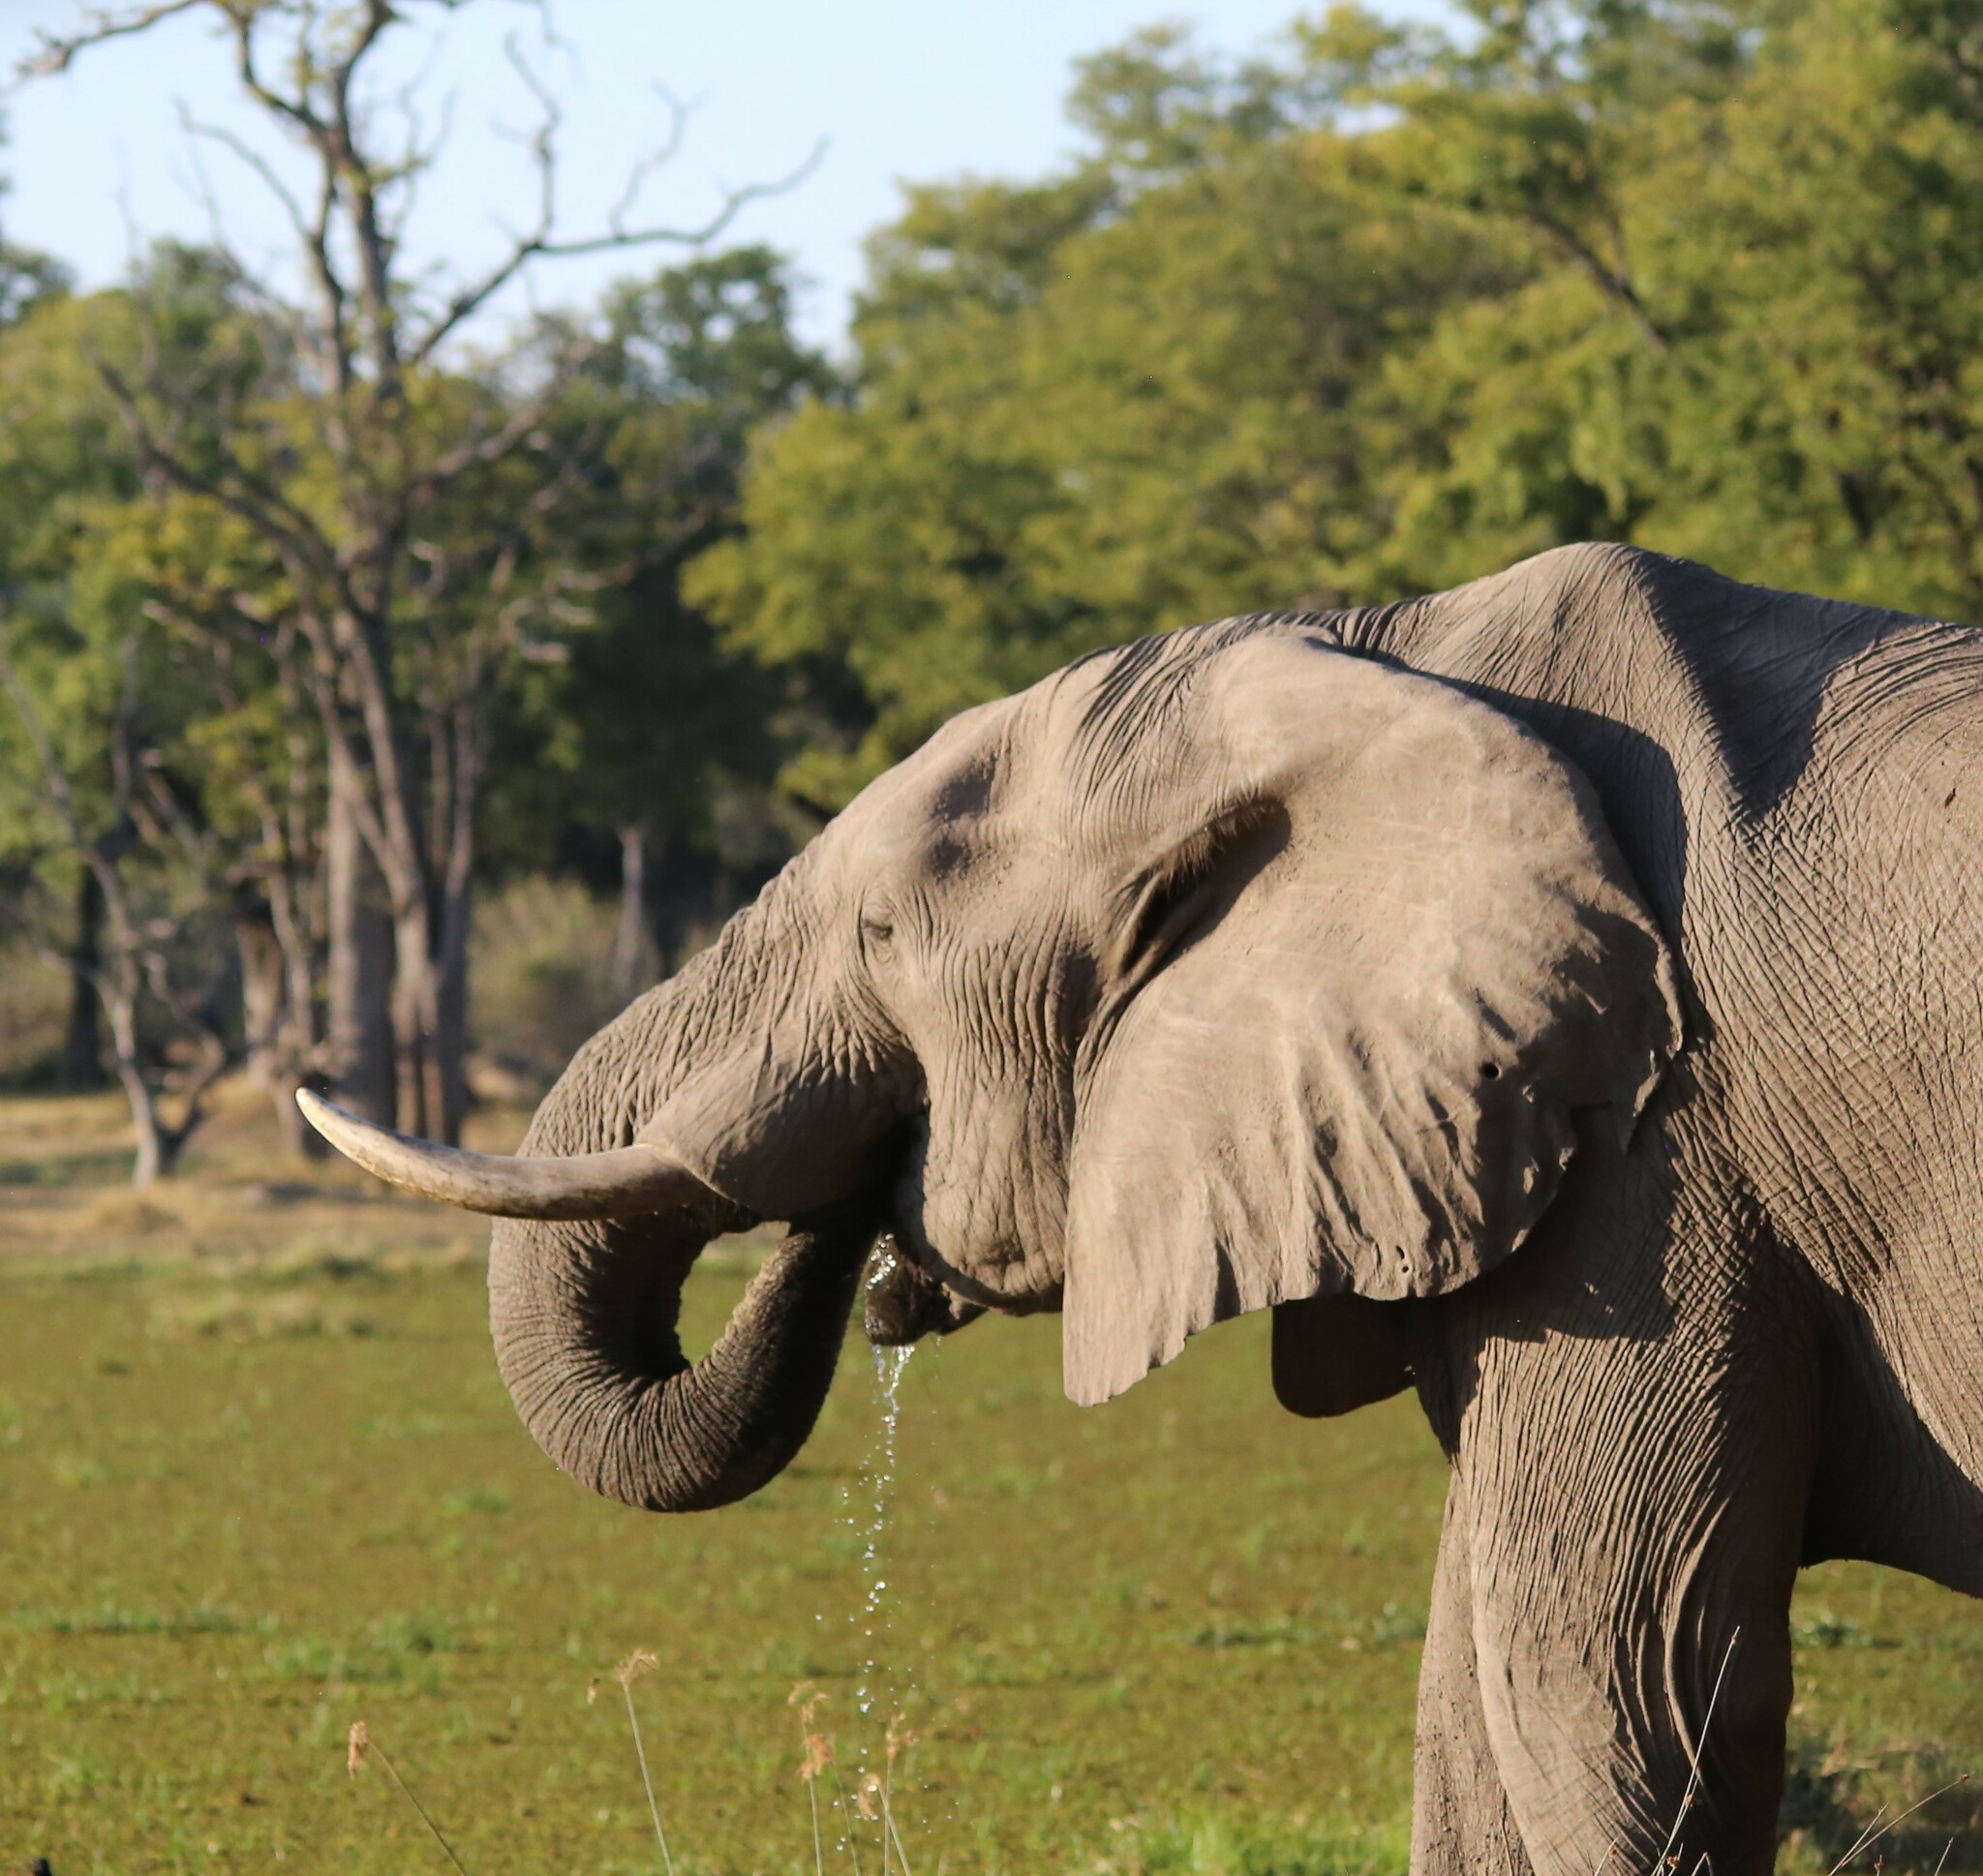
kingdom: Animalia
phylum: Chordata
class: Mammalia
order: Proboscidea
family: Elephantidae
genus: Loxodonta
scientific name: Loxodonta africana
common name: African elephant
